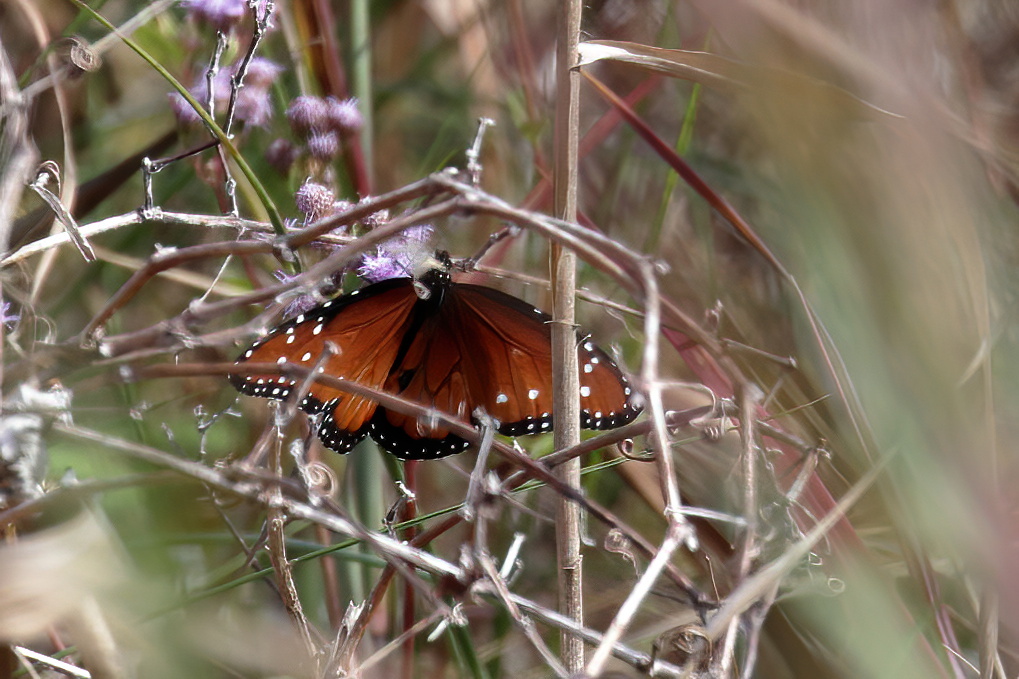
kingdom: Animalia
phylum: Arthropoda
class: Insecta
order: Lepidoptera
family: Nymphalidae
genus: Danaus
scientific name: Danaus gilippus
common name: Queen
